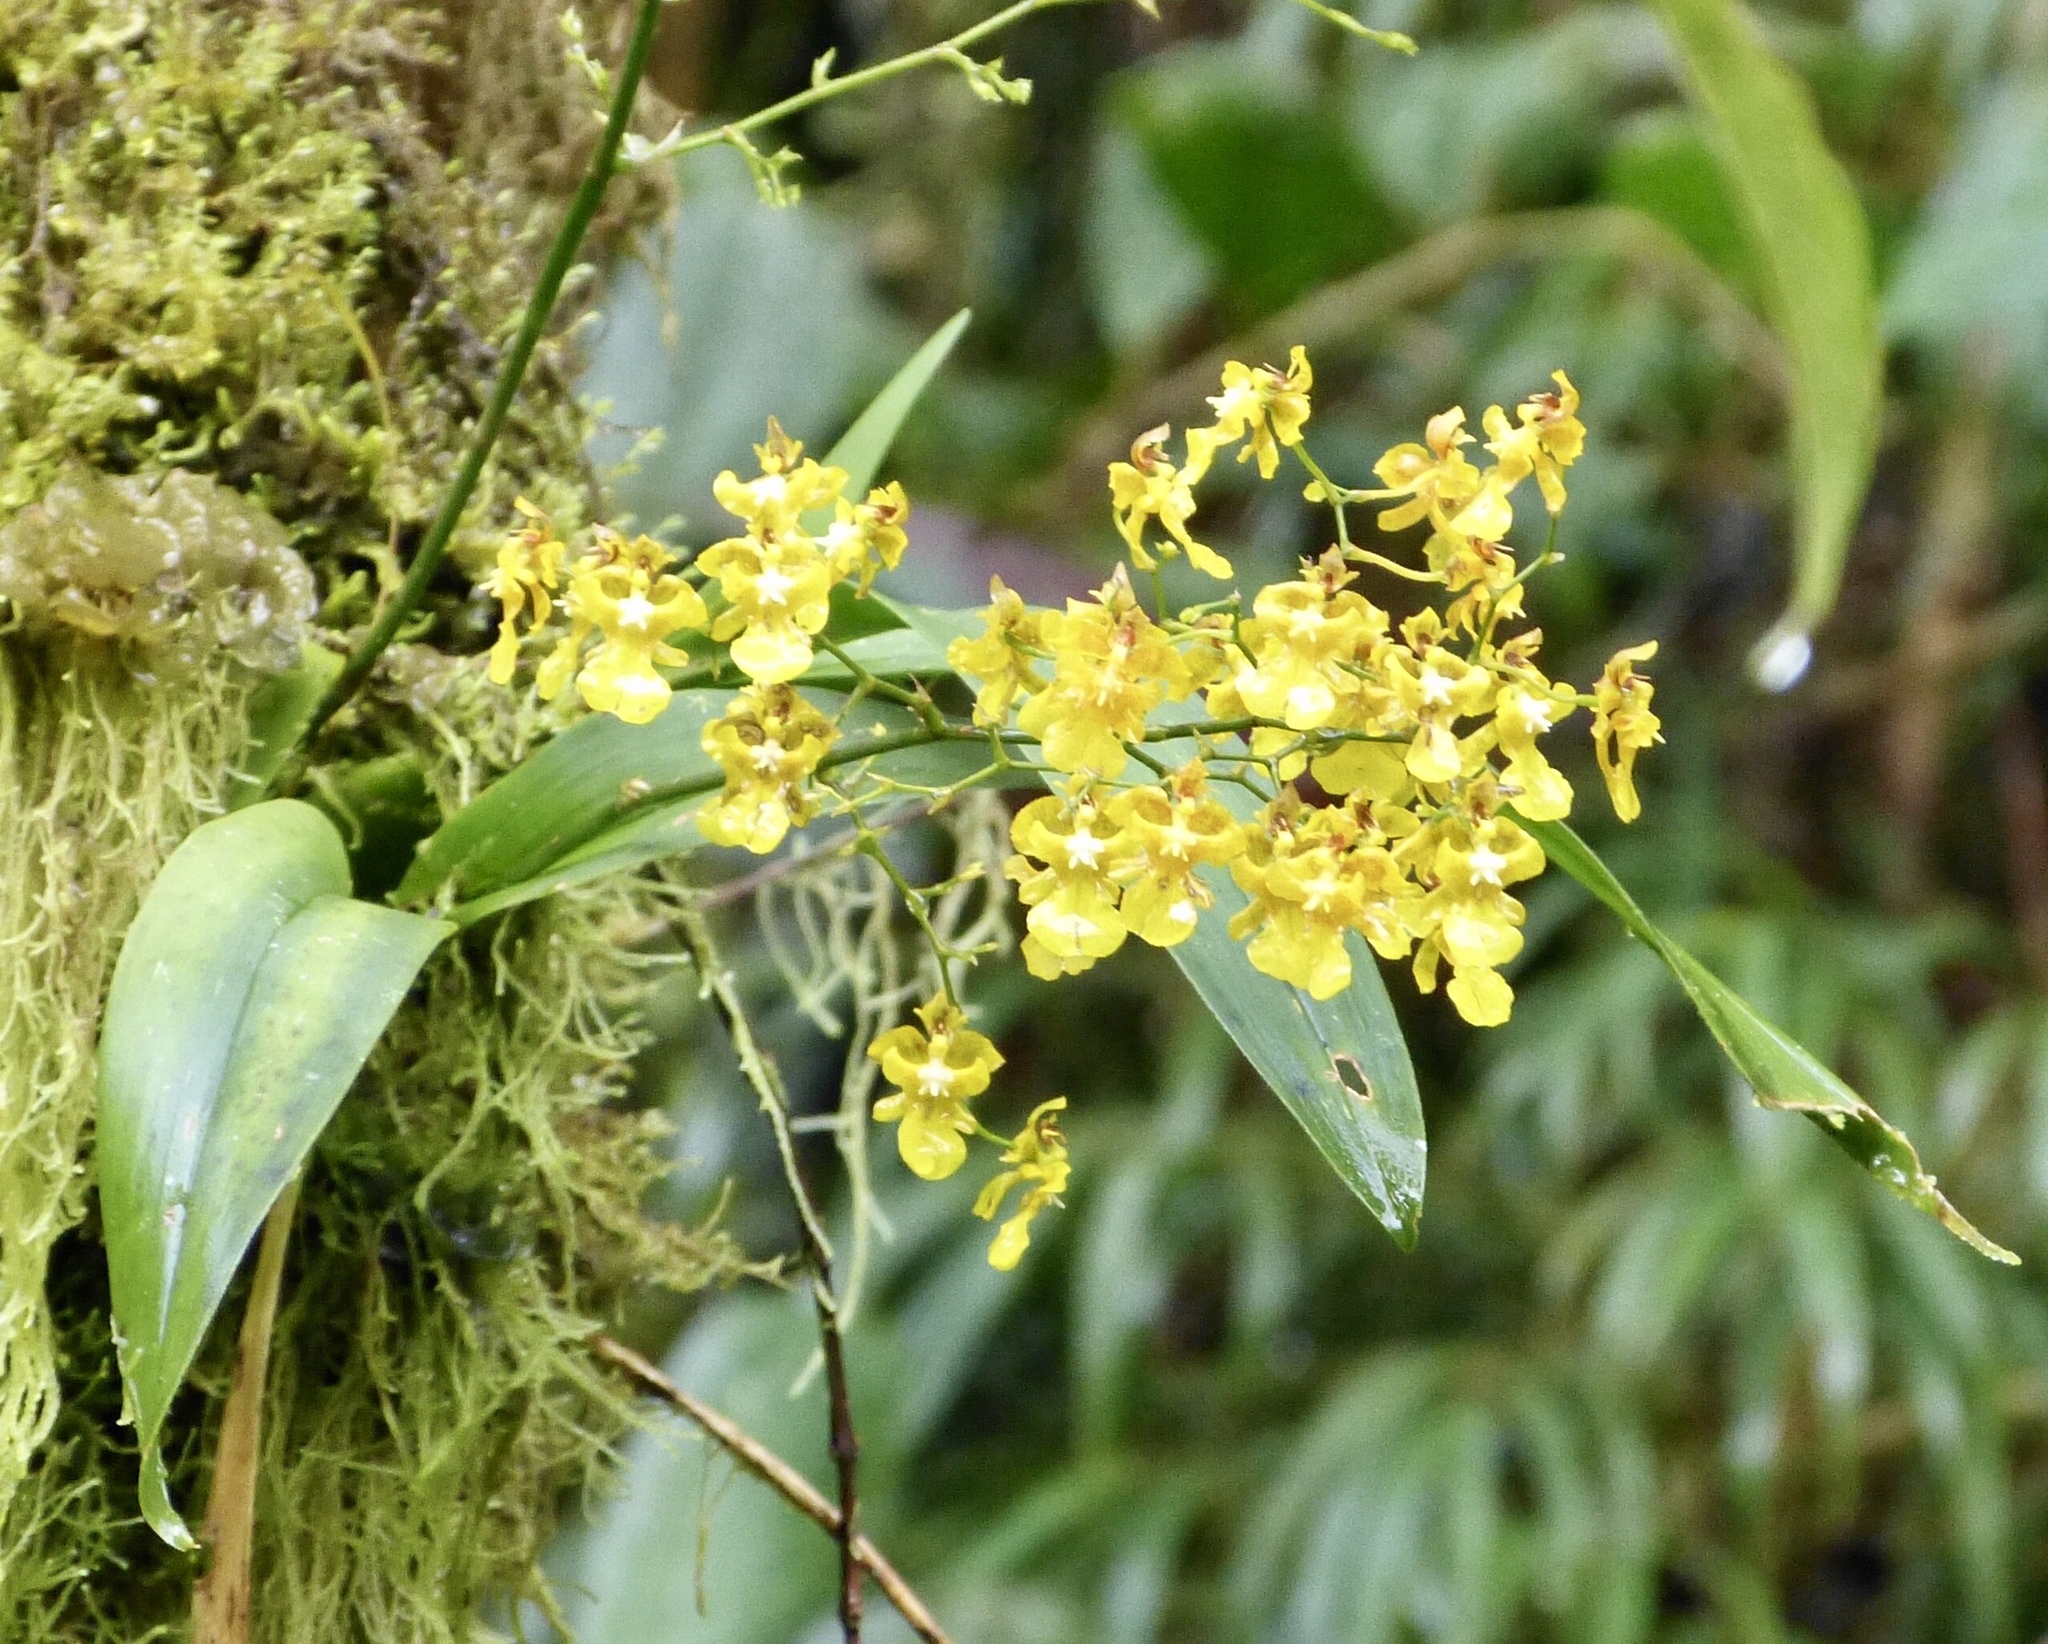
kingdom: Plantae
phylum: Tracheophyta
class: Liliopsida
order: Asparagales
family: Orchidaceae
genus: Oncidium
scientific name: Oncidium ornithorhynchum
